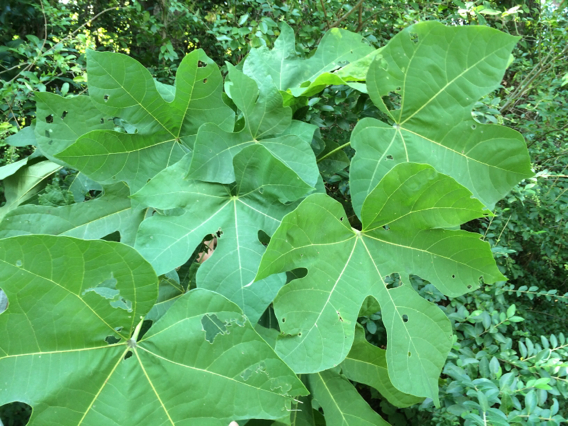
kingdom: Plantae
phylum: Tracheophyta
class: Magnoliopsida
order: Malvales
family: Malvaceae
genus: Firmiana
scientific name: Firmiana simplex
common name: Chinese parasoltree
